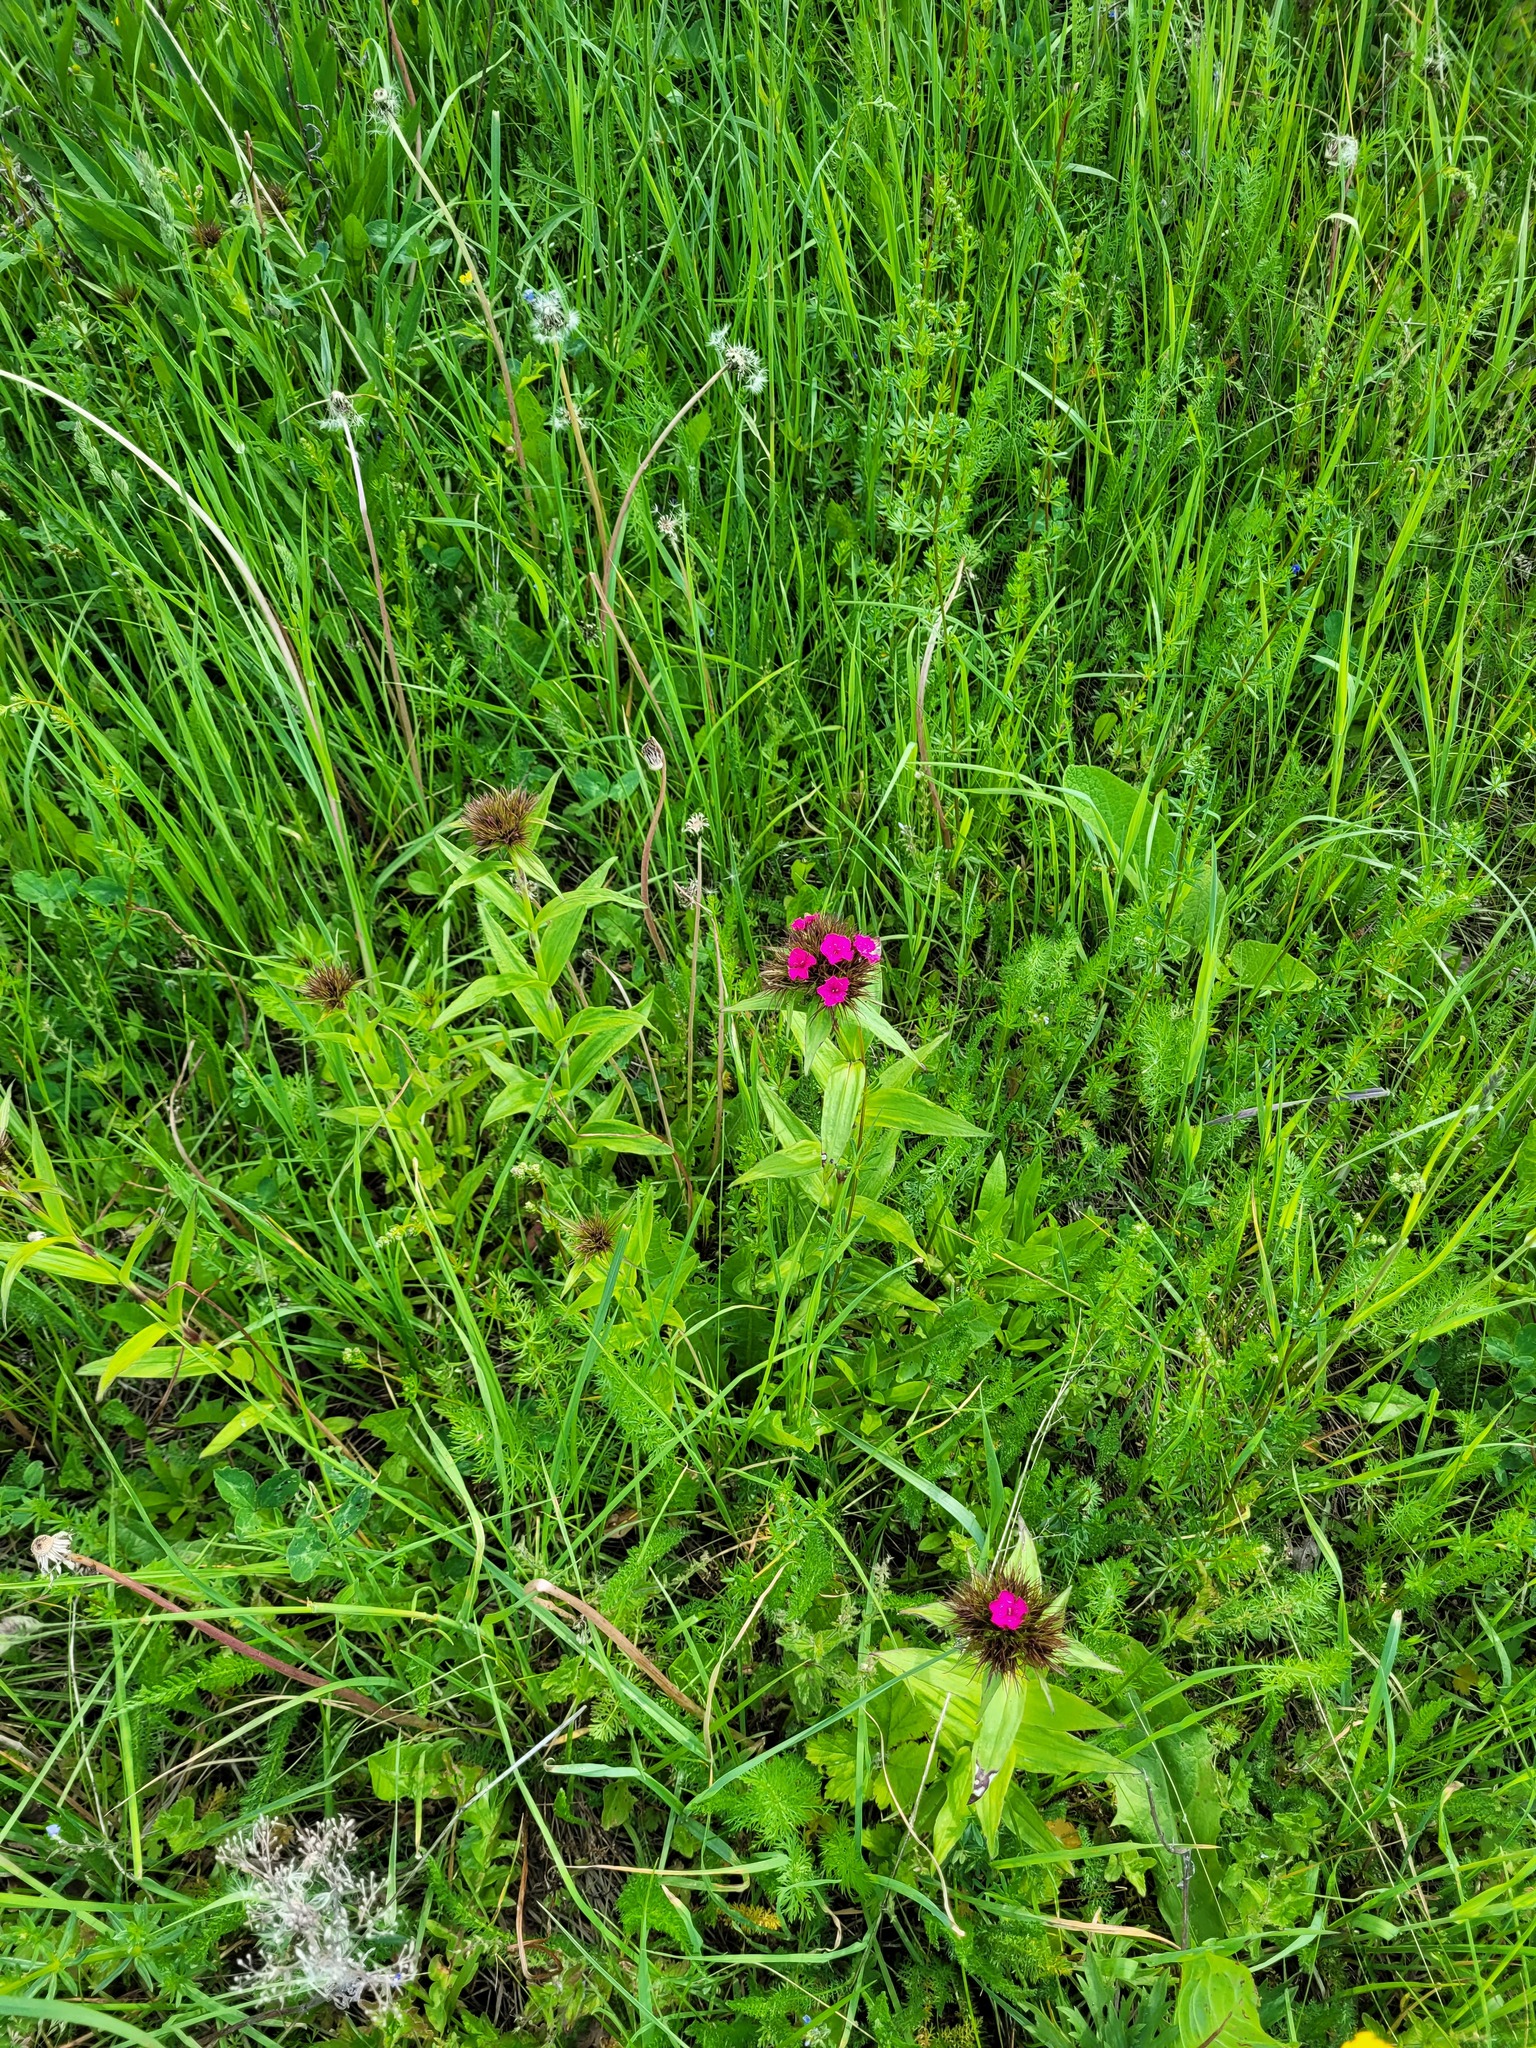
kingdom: Plantae
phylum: Tracheophyta
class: Magnoliopsida
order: Caryophyllales
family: Caryophyllaceae
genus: Dianthus
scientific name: Dianthus barbatus
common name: Sweet-william
